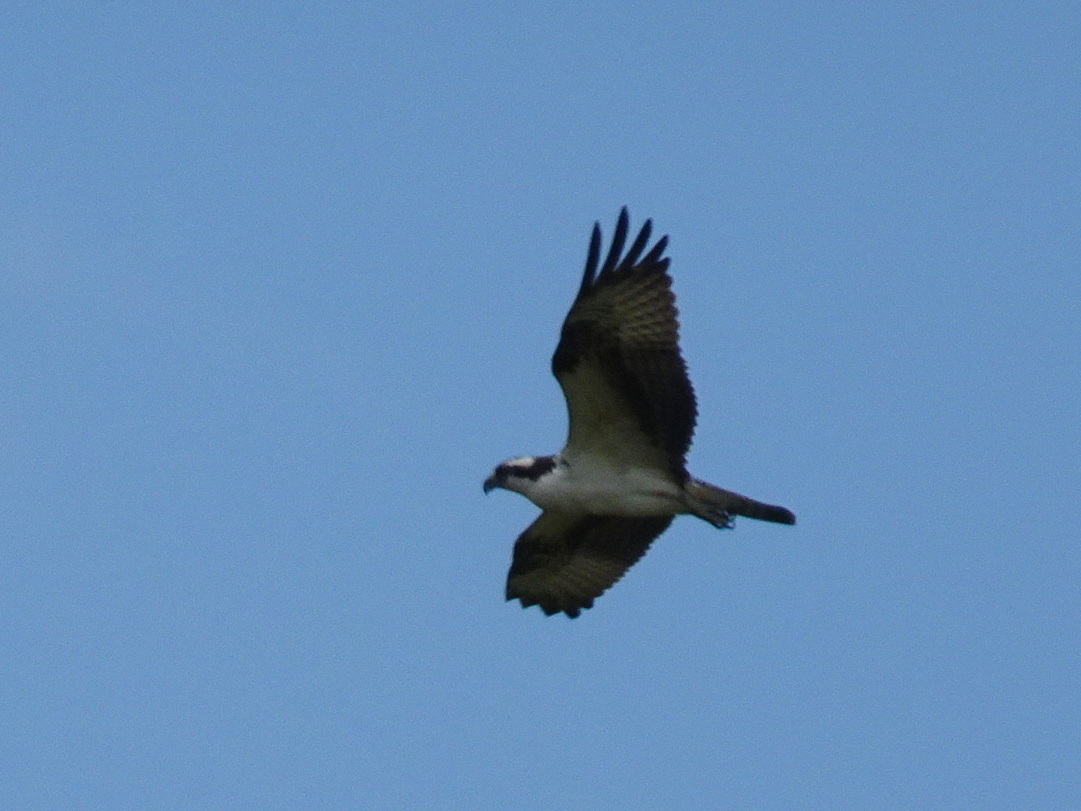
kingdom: Animalia
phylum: Chordata
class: Aves
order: Accipitriformes
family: Pandionidae
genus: Pandion
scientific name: Pandion haliaetus
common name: Osprey
